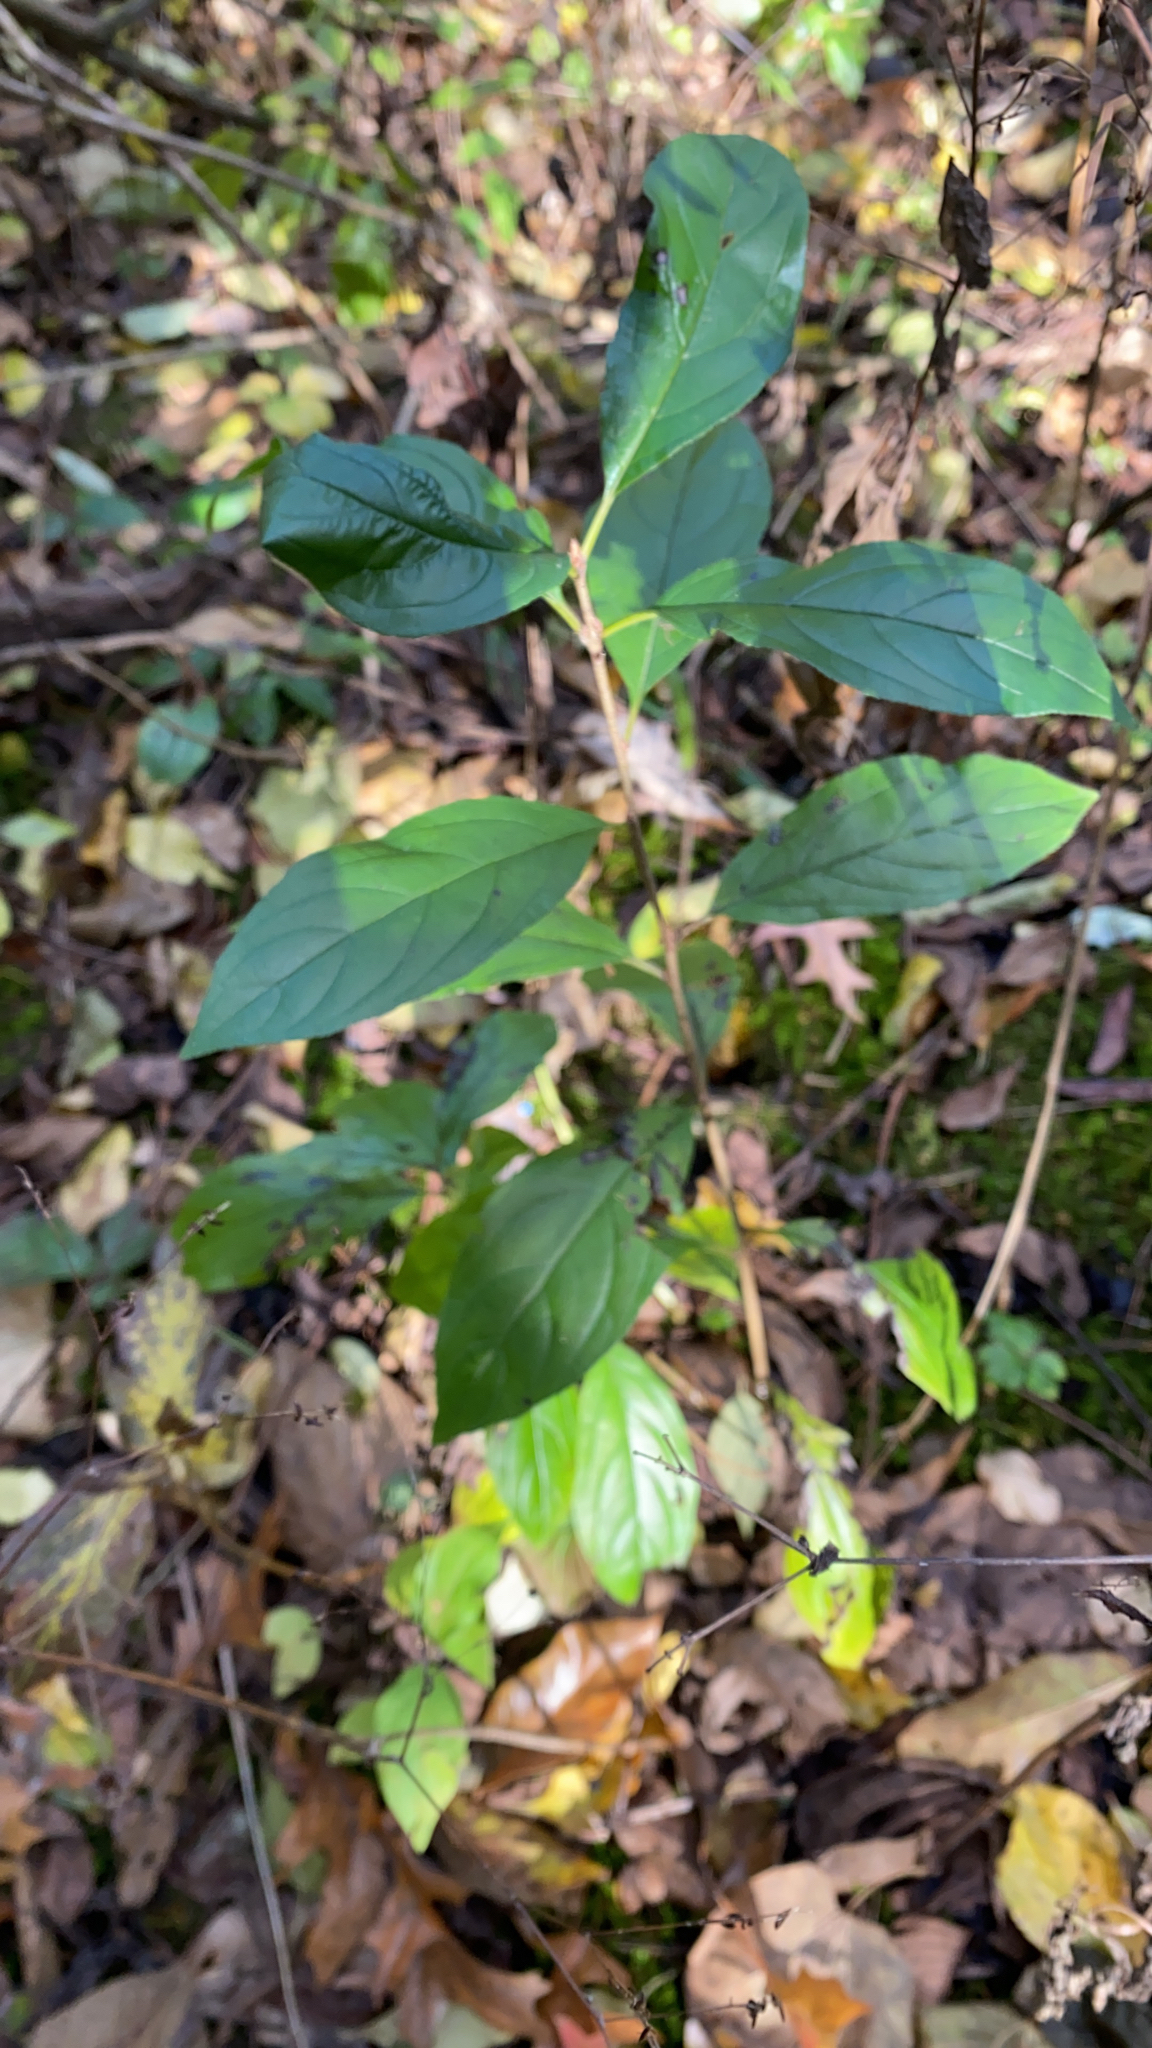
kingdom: Plantae
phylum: Tracheophyta
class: Magnoliopsida
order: Rosales
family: Rhamnaceae
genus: Frangula
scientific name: Frangula caroliniana
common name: Carolina buckthorn
